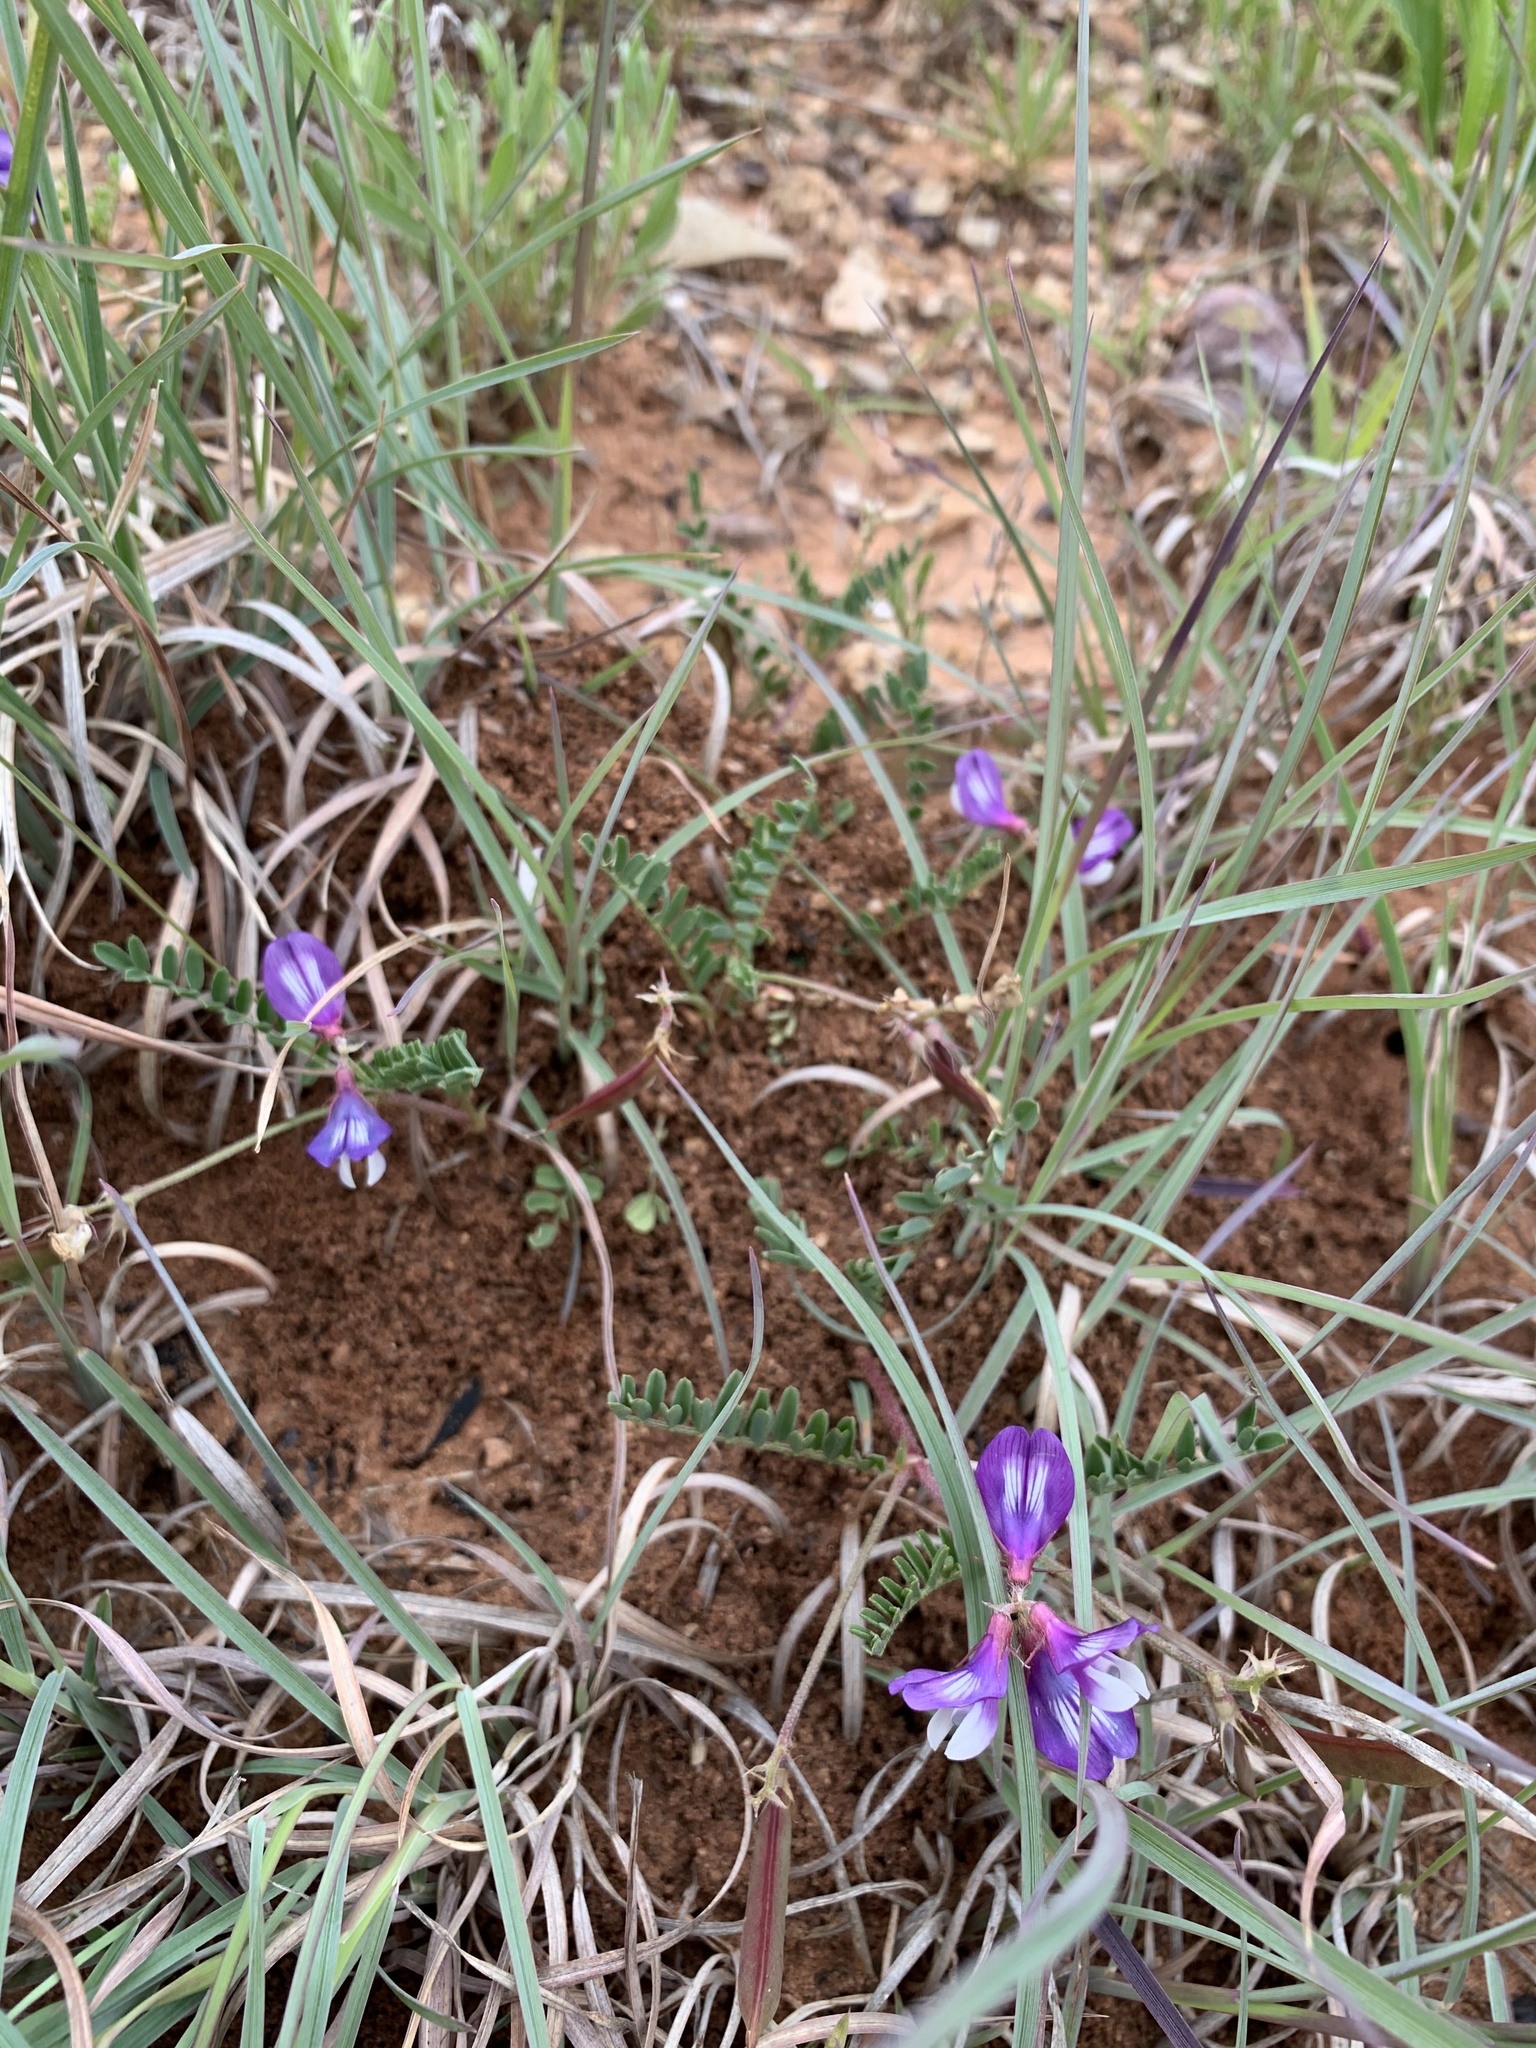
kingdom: Plantae
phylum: Tracheophyta
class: Magnoliopsida
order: Fabales
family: Fabaceae
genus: Astragalus
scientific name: Astragalus lindheimeri
